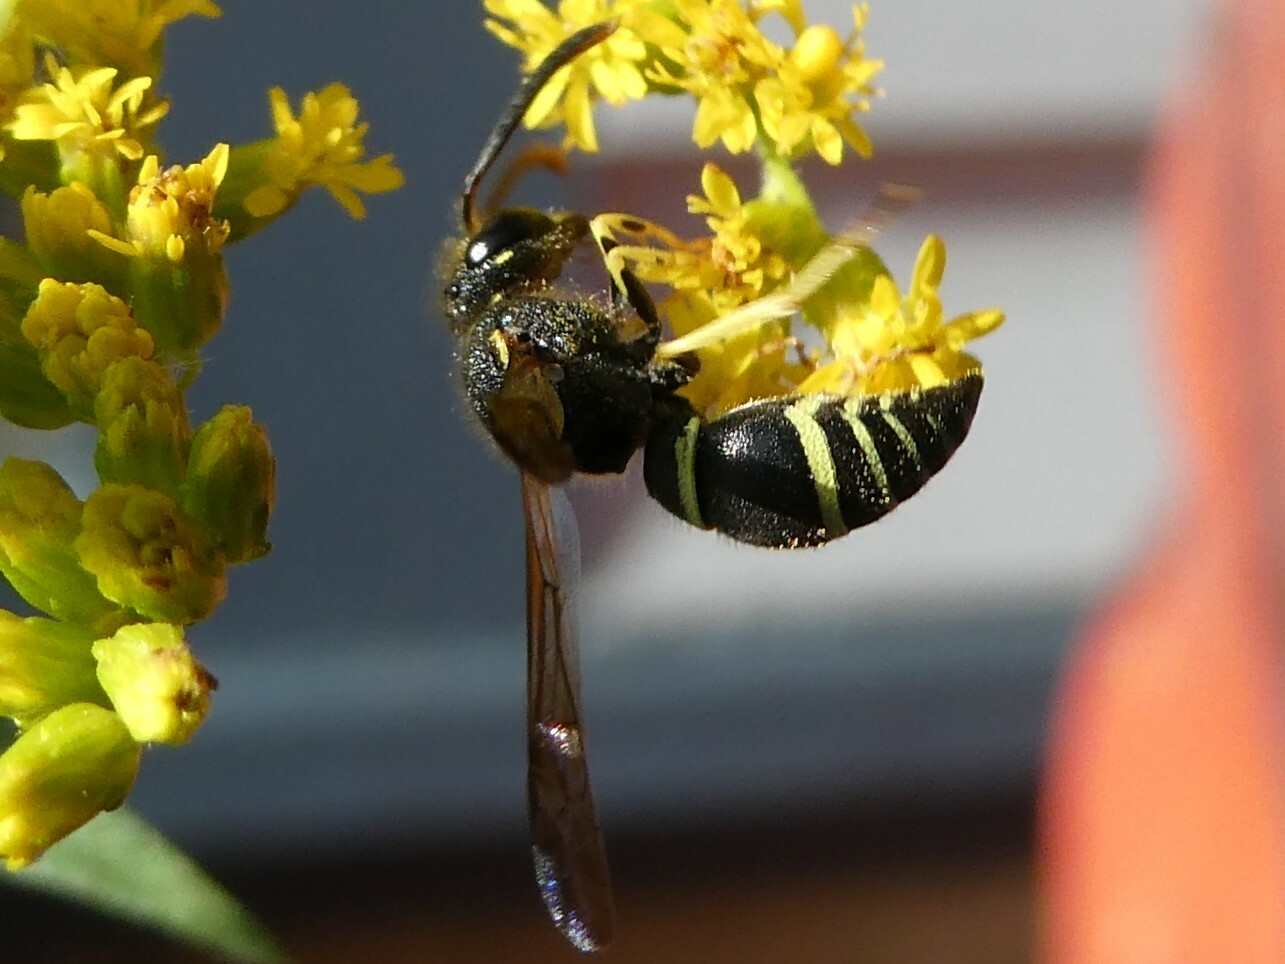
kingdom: Animalia
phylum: Arthropoda
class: Insecta
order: Hymenoptera
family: Vespidae
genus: Ancistrocerus
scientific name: Ancistrocerus
